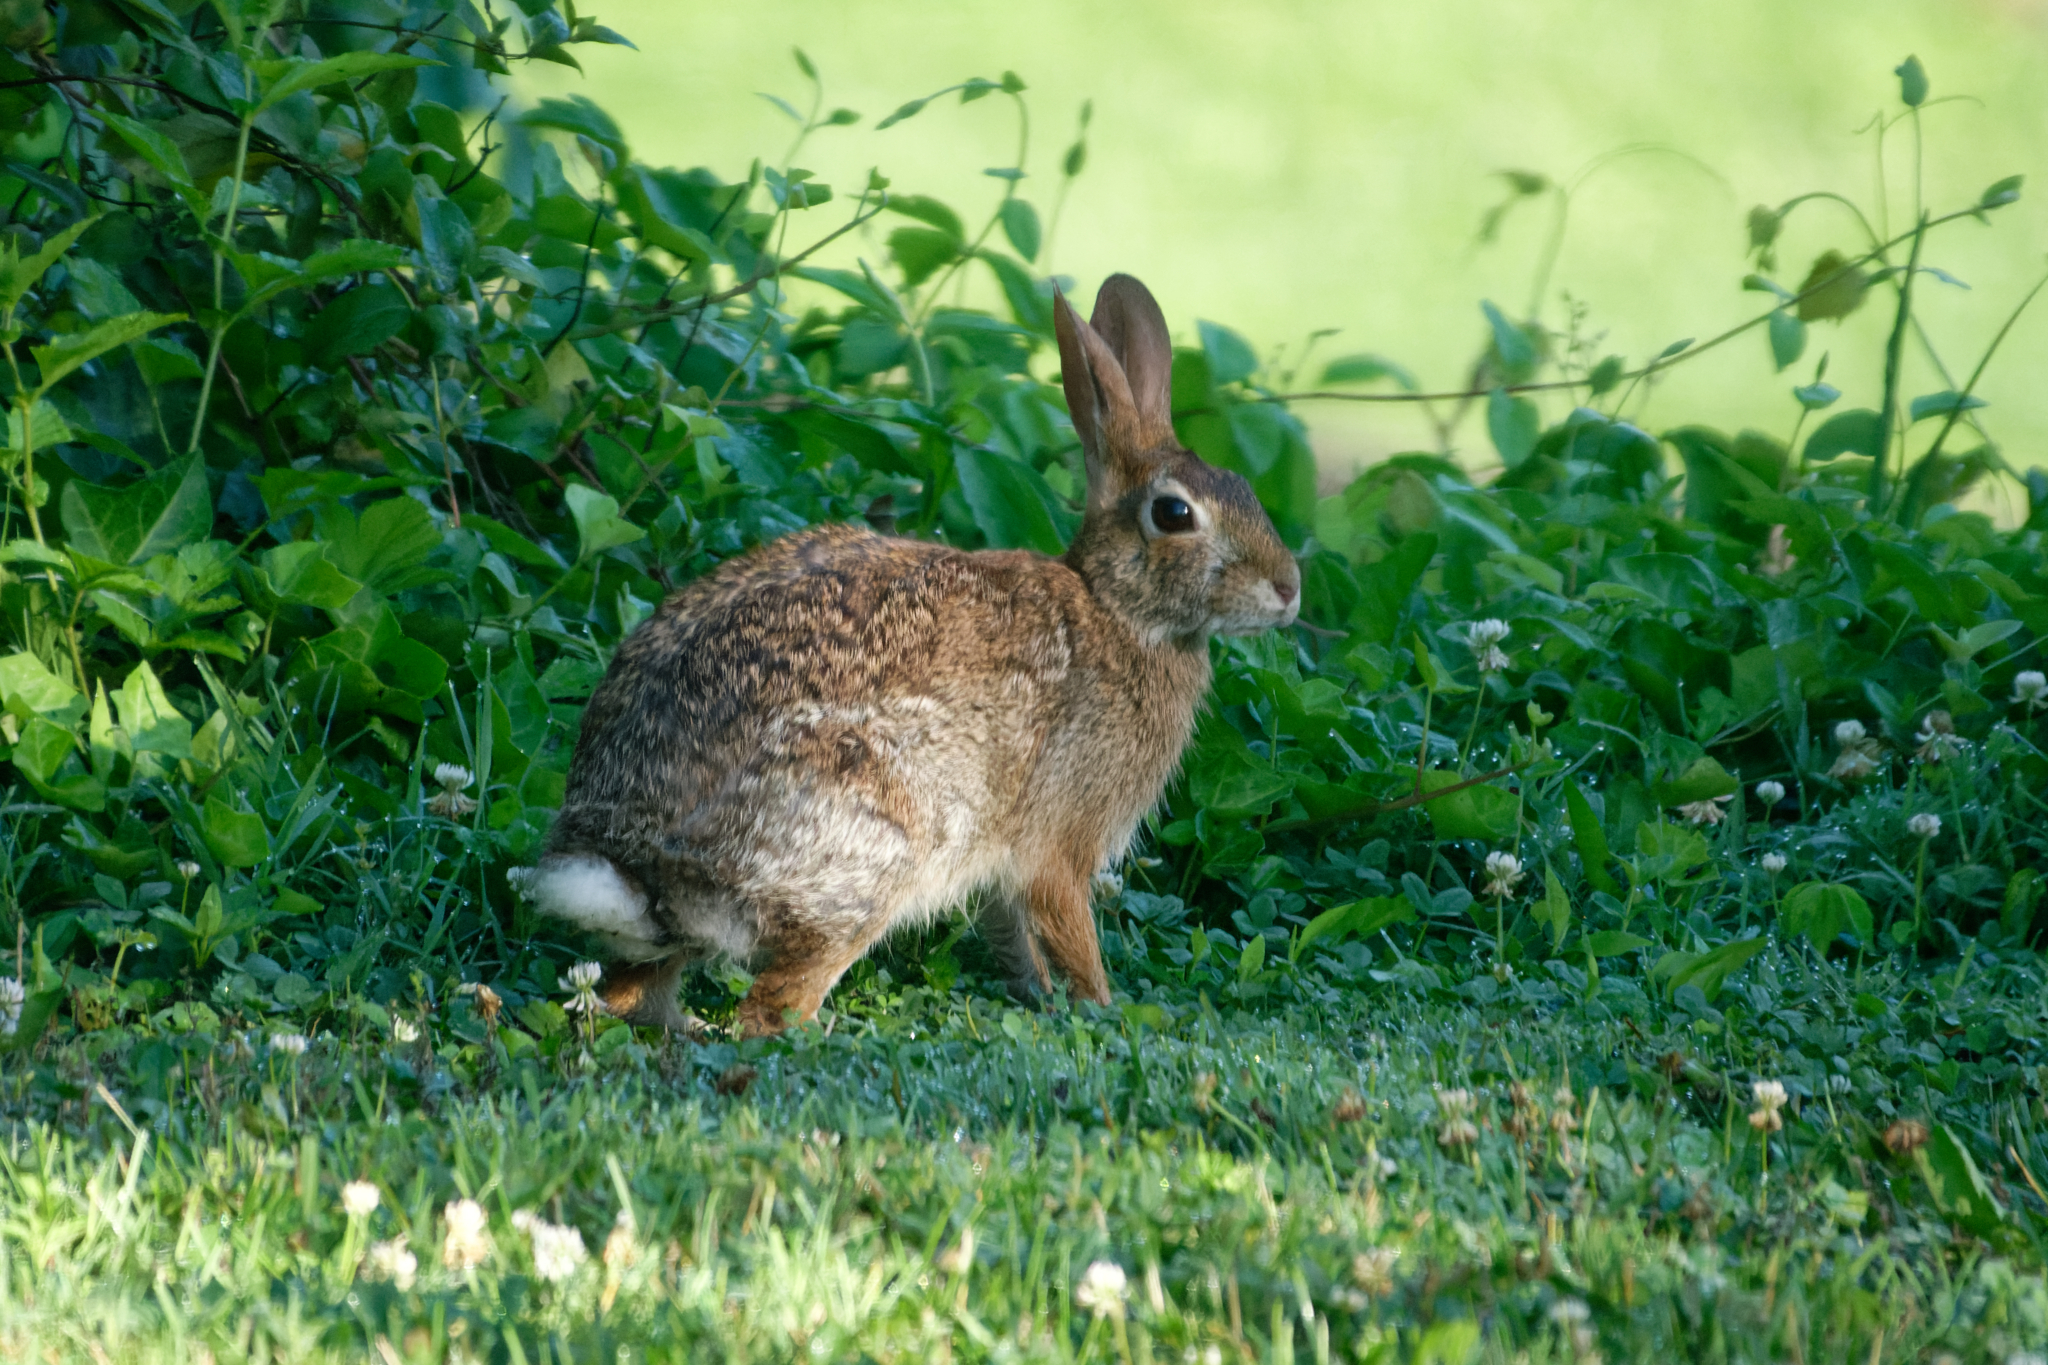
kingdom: Animalia
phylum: Chordata
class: Mammalia
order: Lagomorpha
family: Leporidae
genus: Sylvilagus
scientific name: Sylvilagus floridanus
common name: Eastern cottontail
